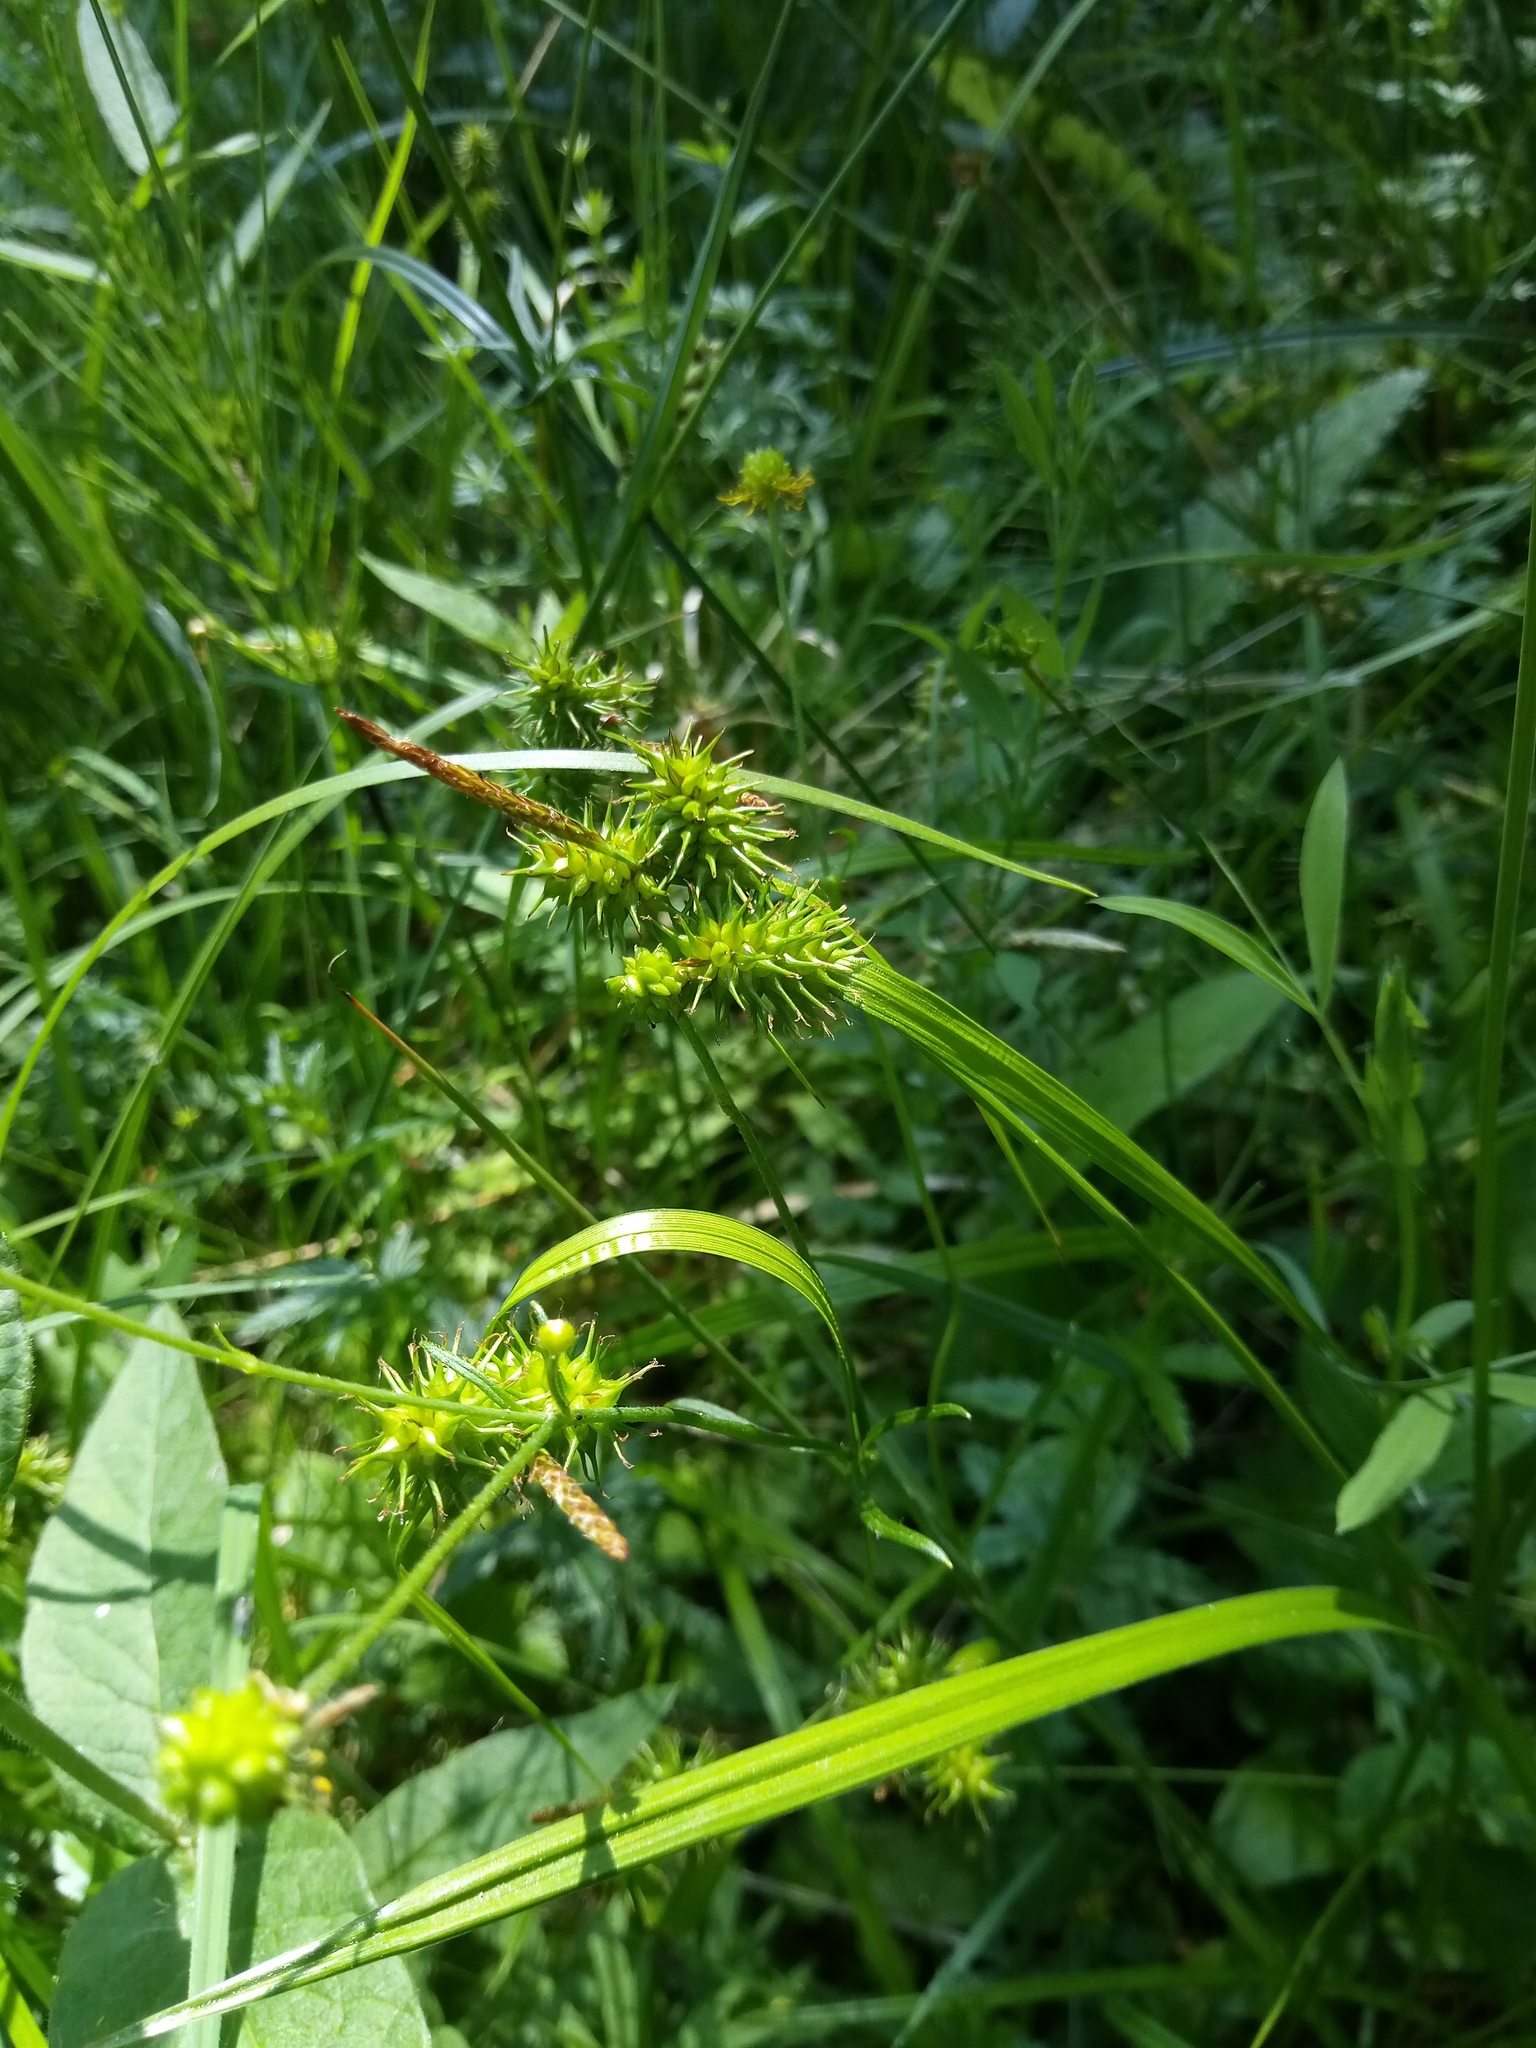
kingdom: Plantae
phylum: Tracheophyta
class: Liliopsida
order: Poales
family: Cyperaceae
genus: Carex
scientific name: Carex flava
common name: Large yellow-sedge
